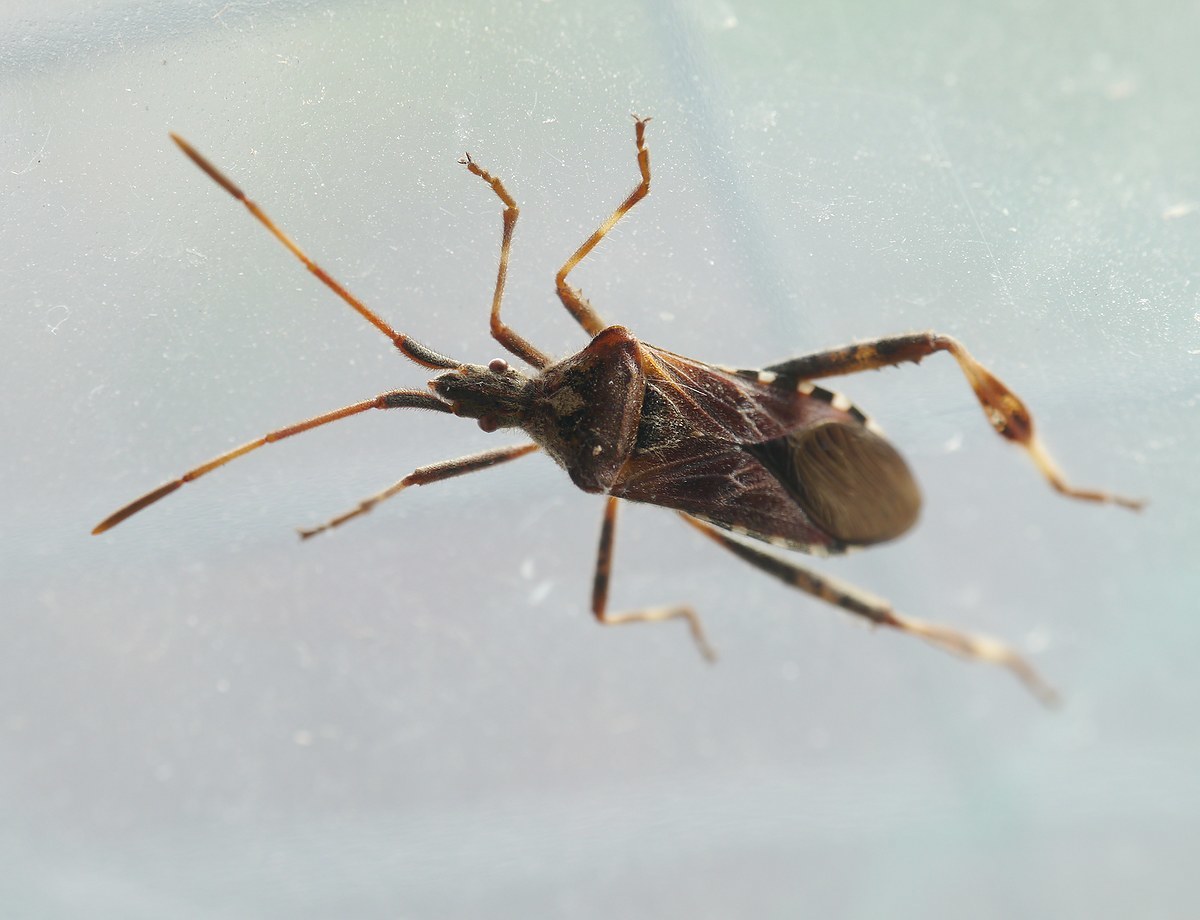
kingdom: Animalia
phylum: Arthropoda
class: Insecta
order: Hemiptera
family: Coreidae
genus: Leptoglossus
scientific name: Leptoglossus occidentalis
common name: Western conifer-seed bug
